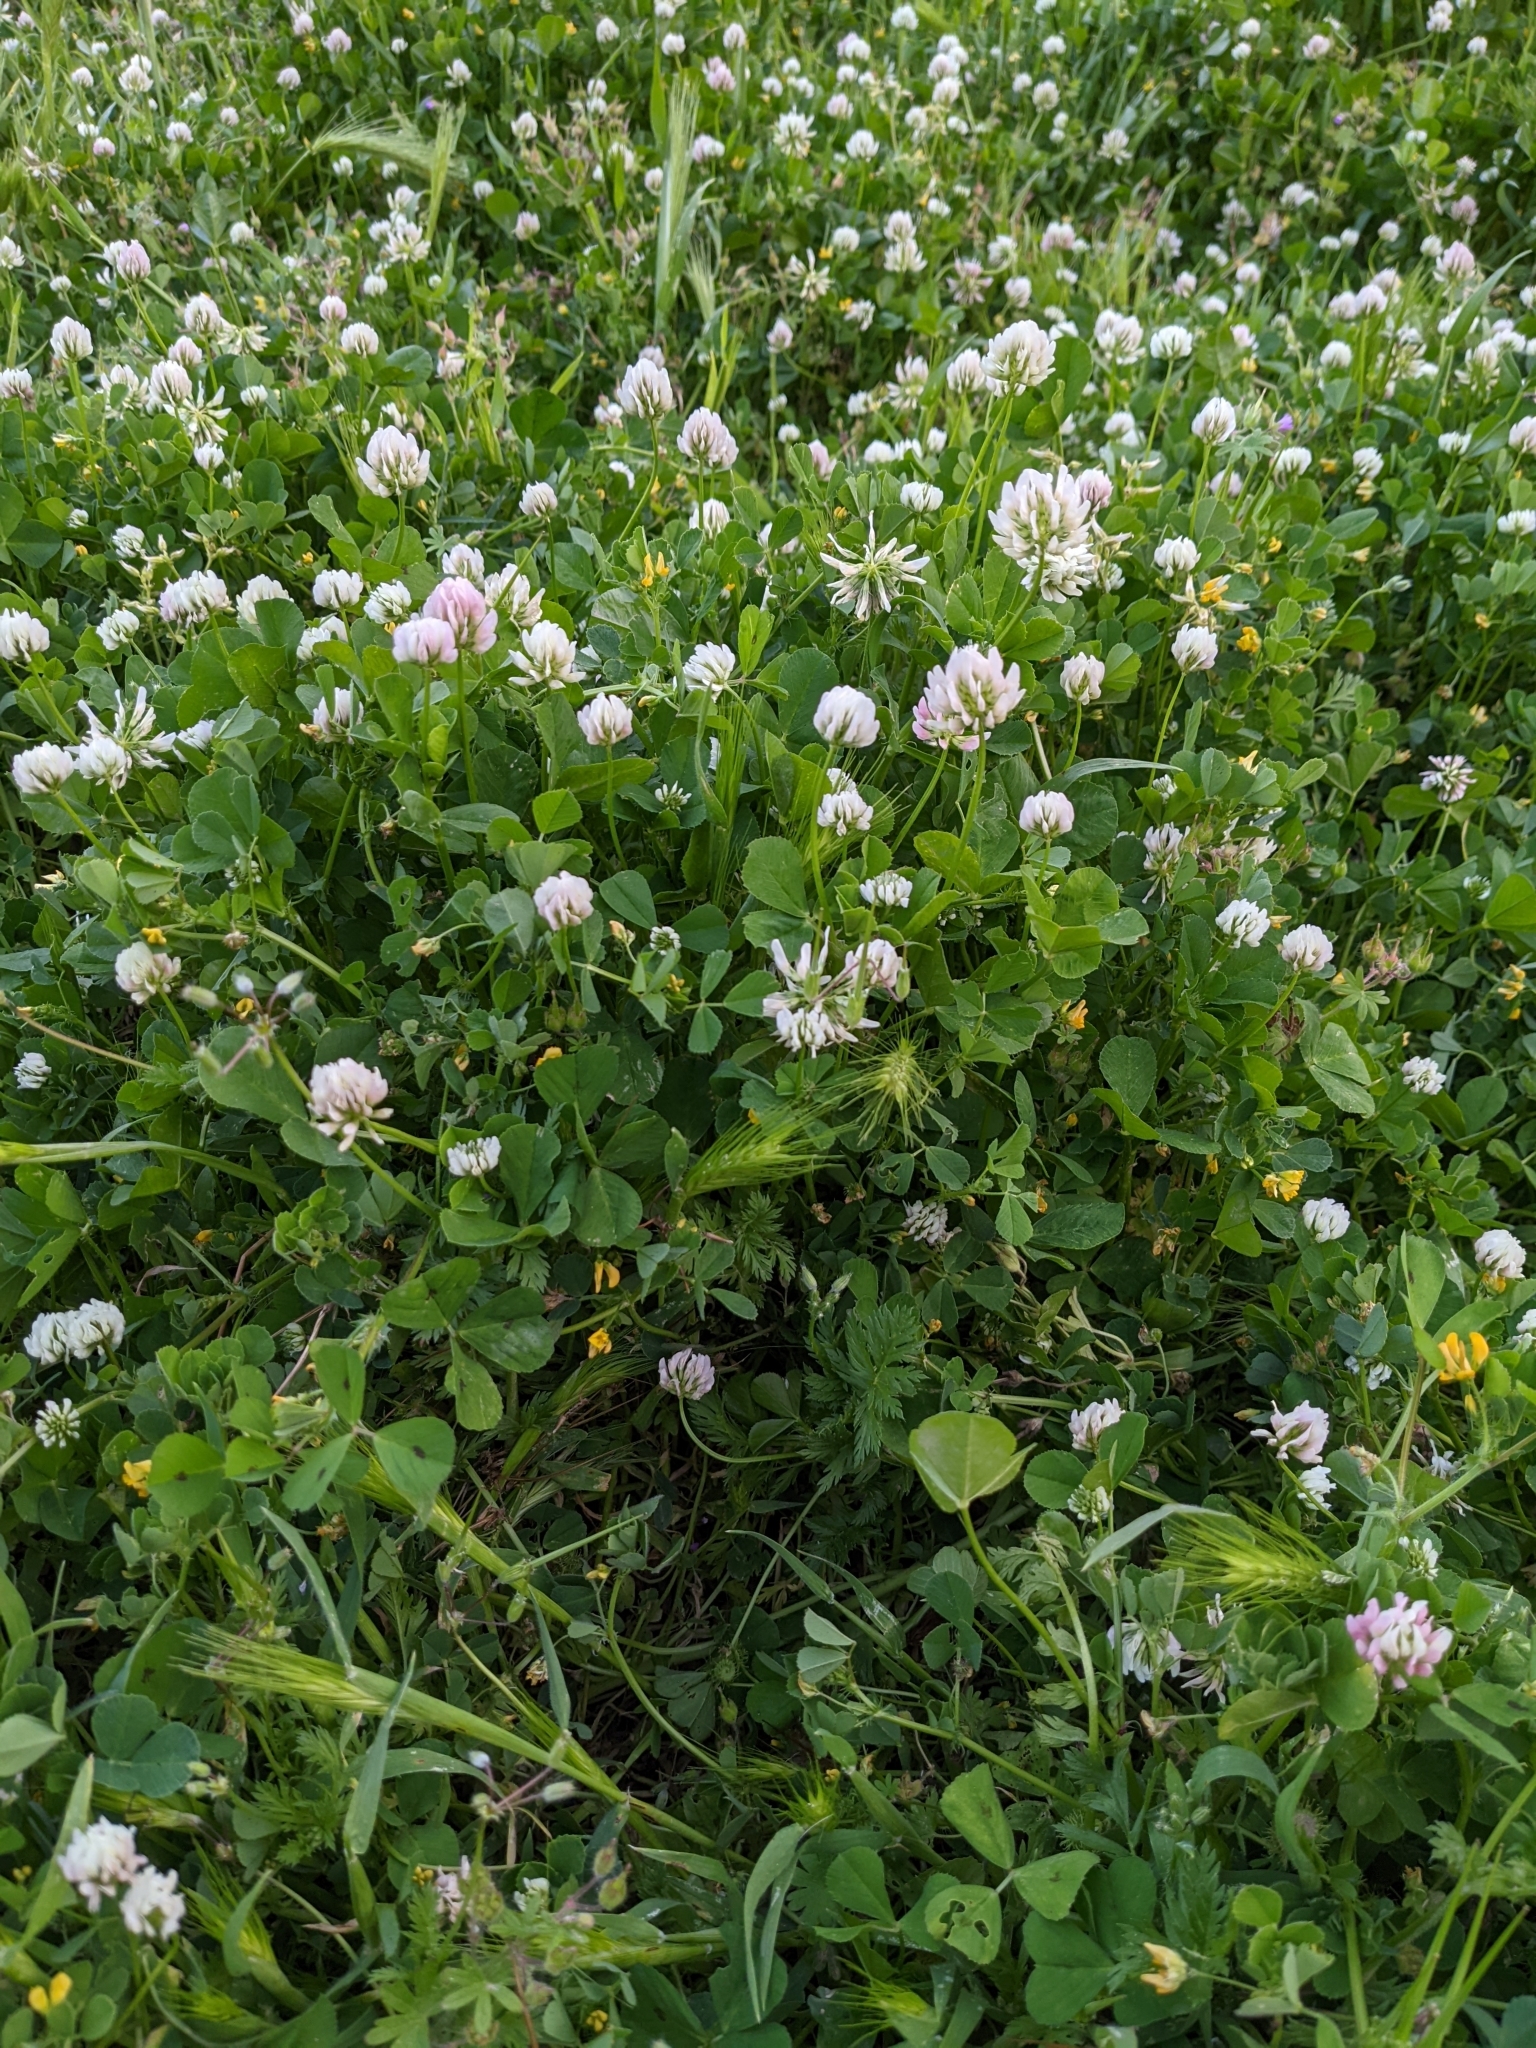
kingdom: Plantae
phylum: Tracheophyta
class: Magnoliopsida
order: Fabales
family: Fabaceae
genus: Trifolium
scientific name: Trifolium nigrescens
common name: Small white clover
